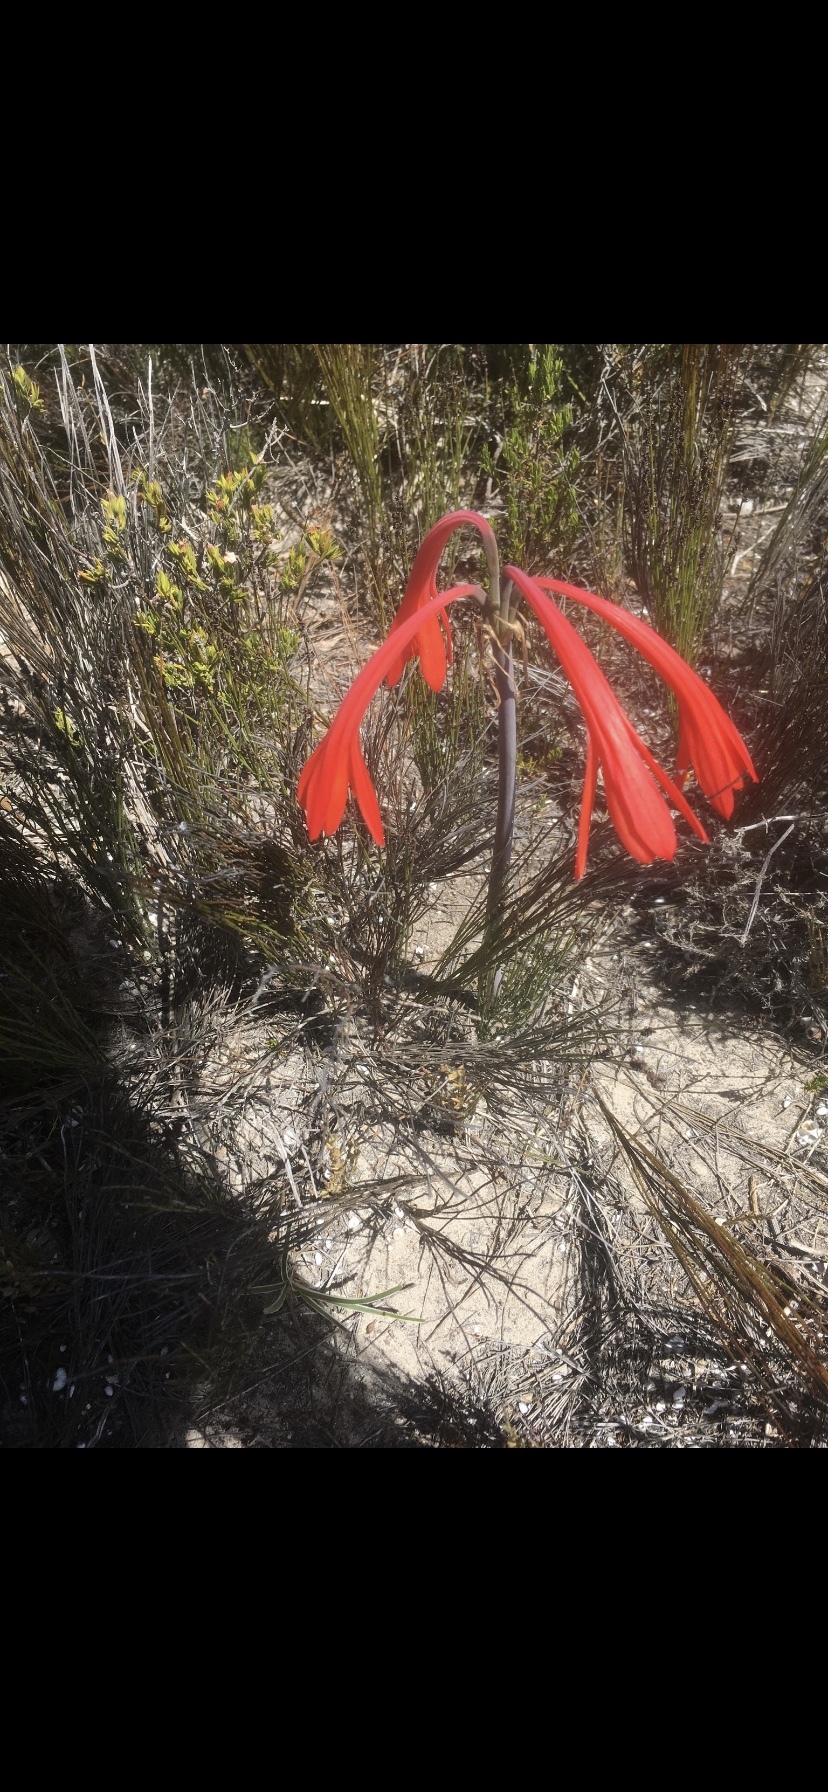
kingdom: Plantae
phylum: Tracheophyta
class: Liliopsida
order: Asparagales
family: Amaryllidaceae
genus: Cyrtanthus
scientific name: Cyrtanthus fergusoniae
